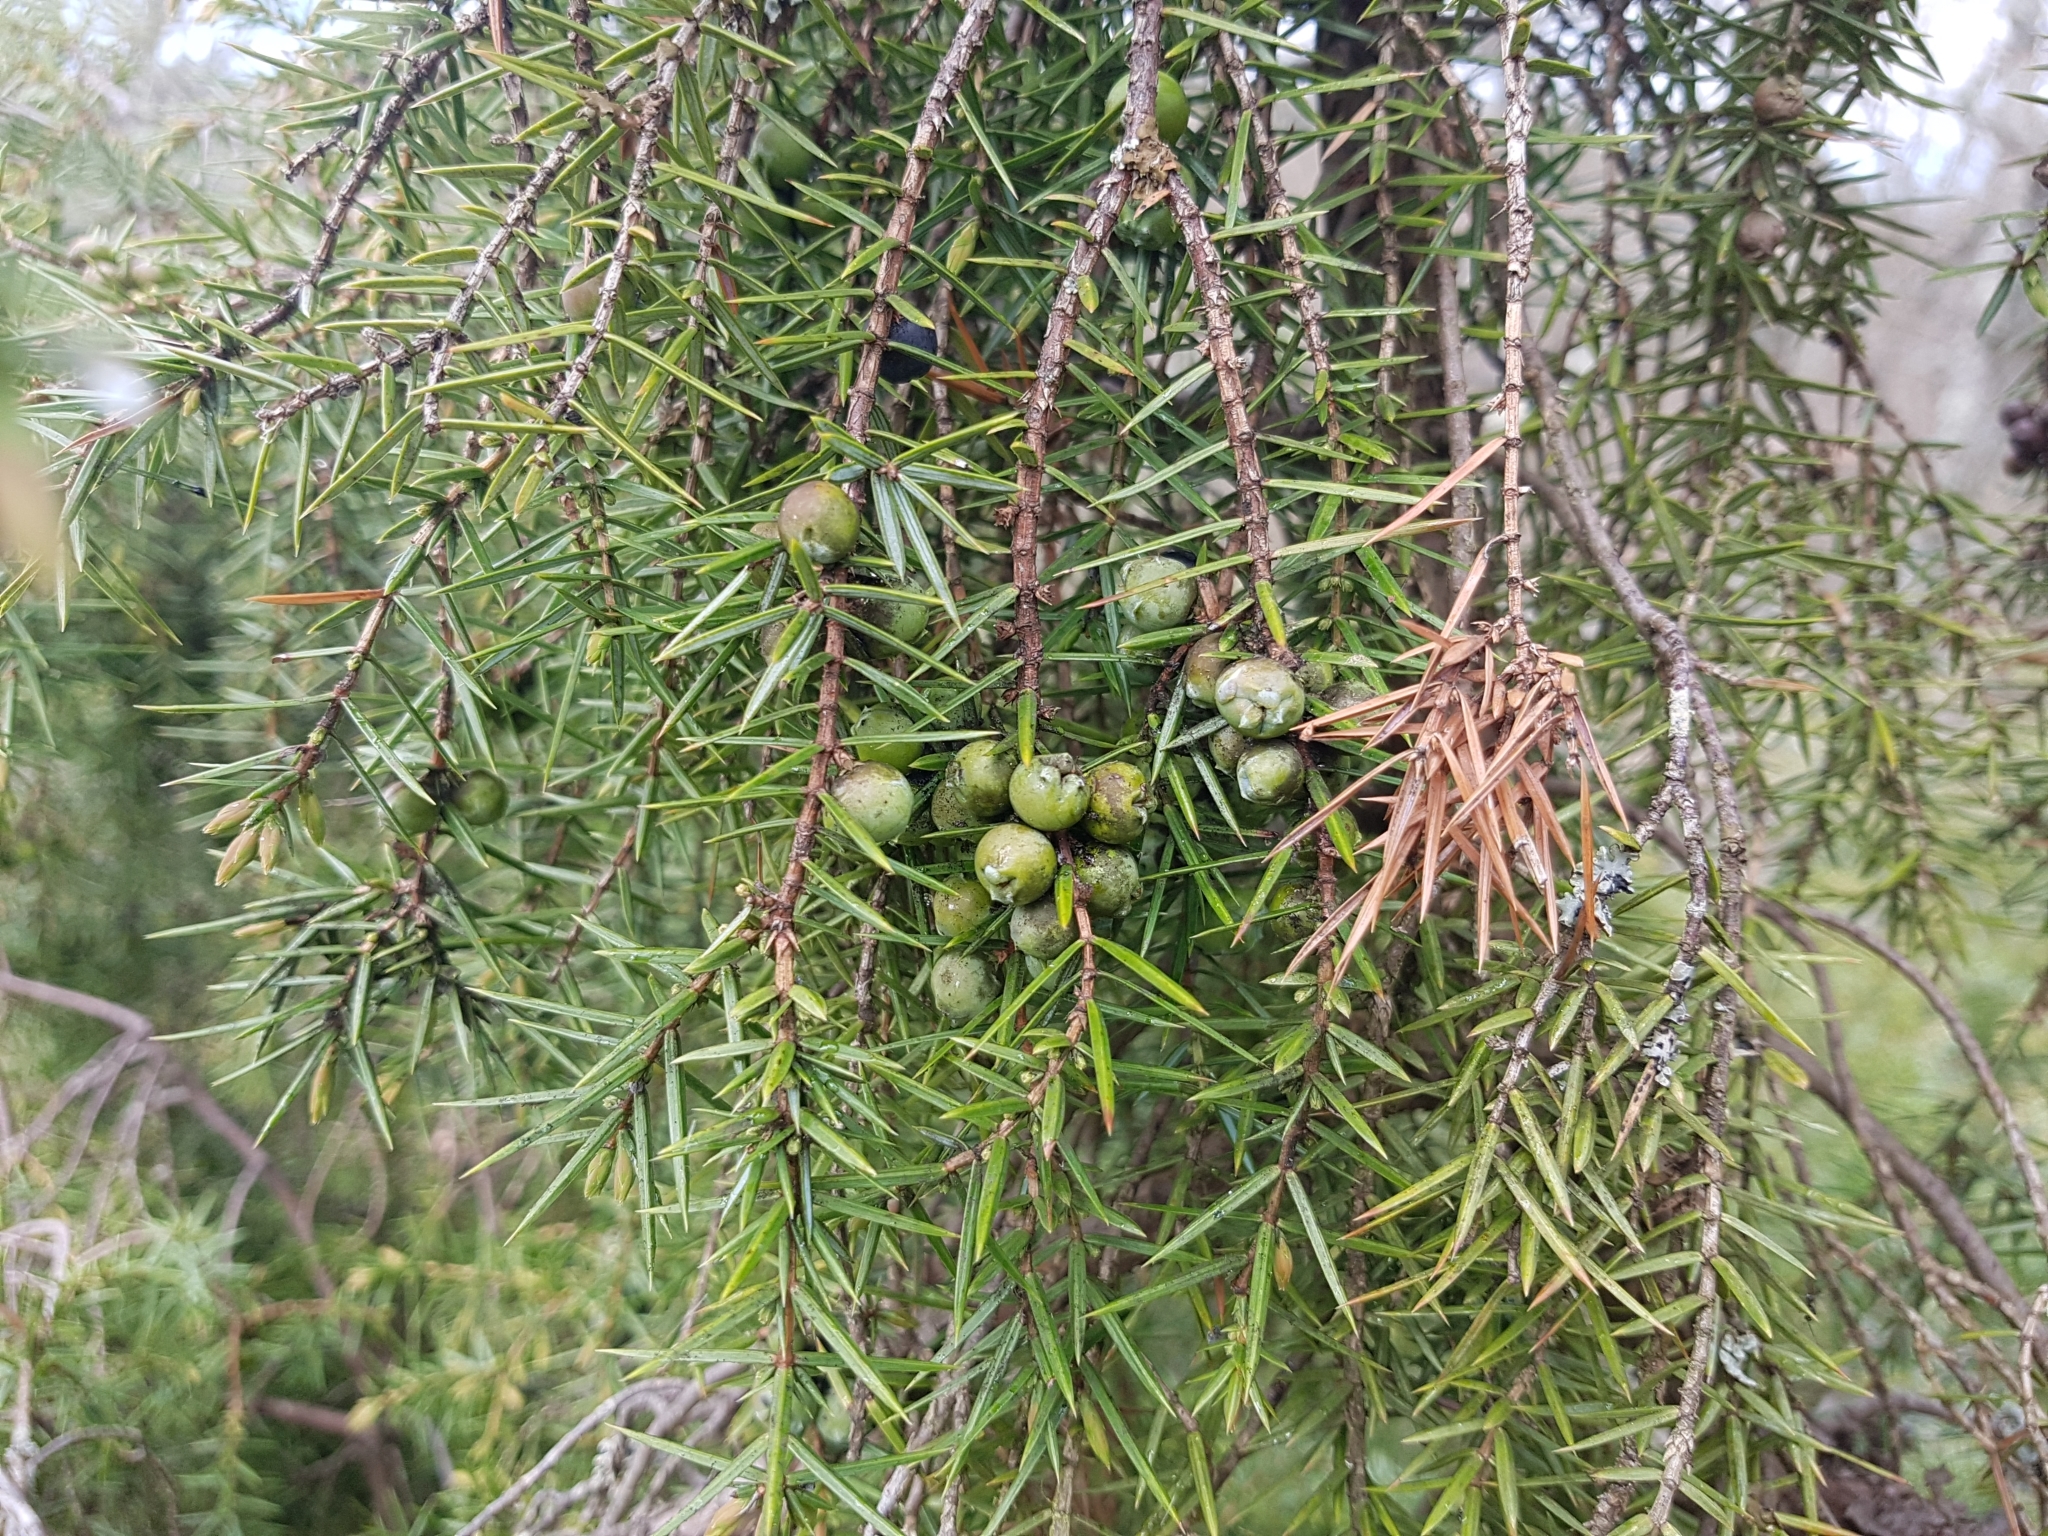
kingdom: Plantae
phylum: Tracheophyta
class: Pinopsida
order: Pinales
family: Cupressaceae
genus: Juniperus
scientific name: Juniperus communis
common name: Common juniper
